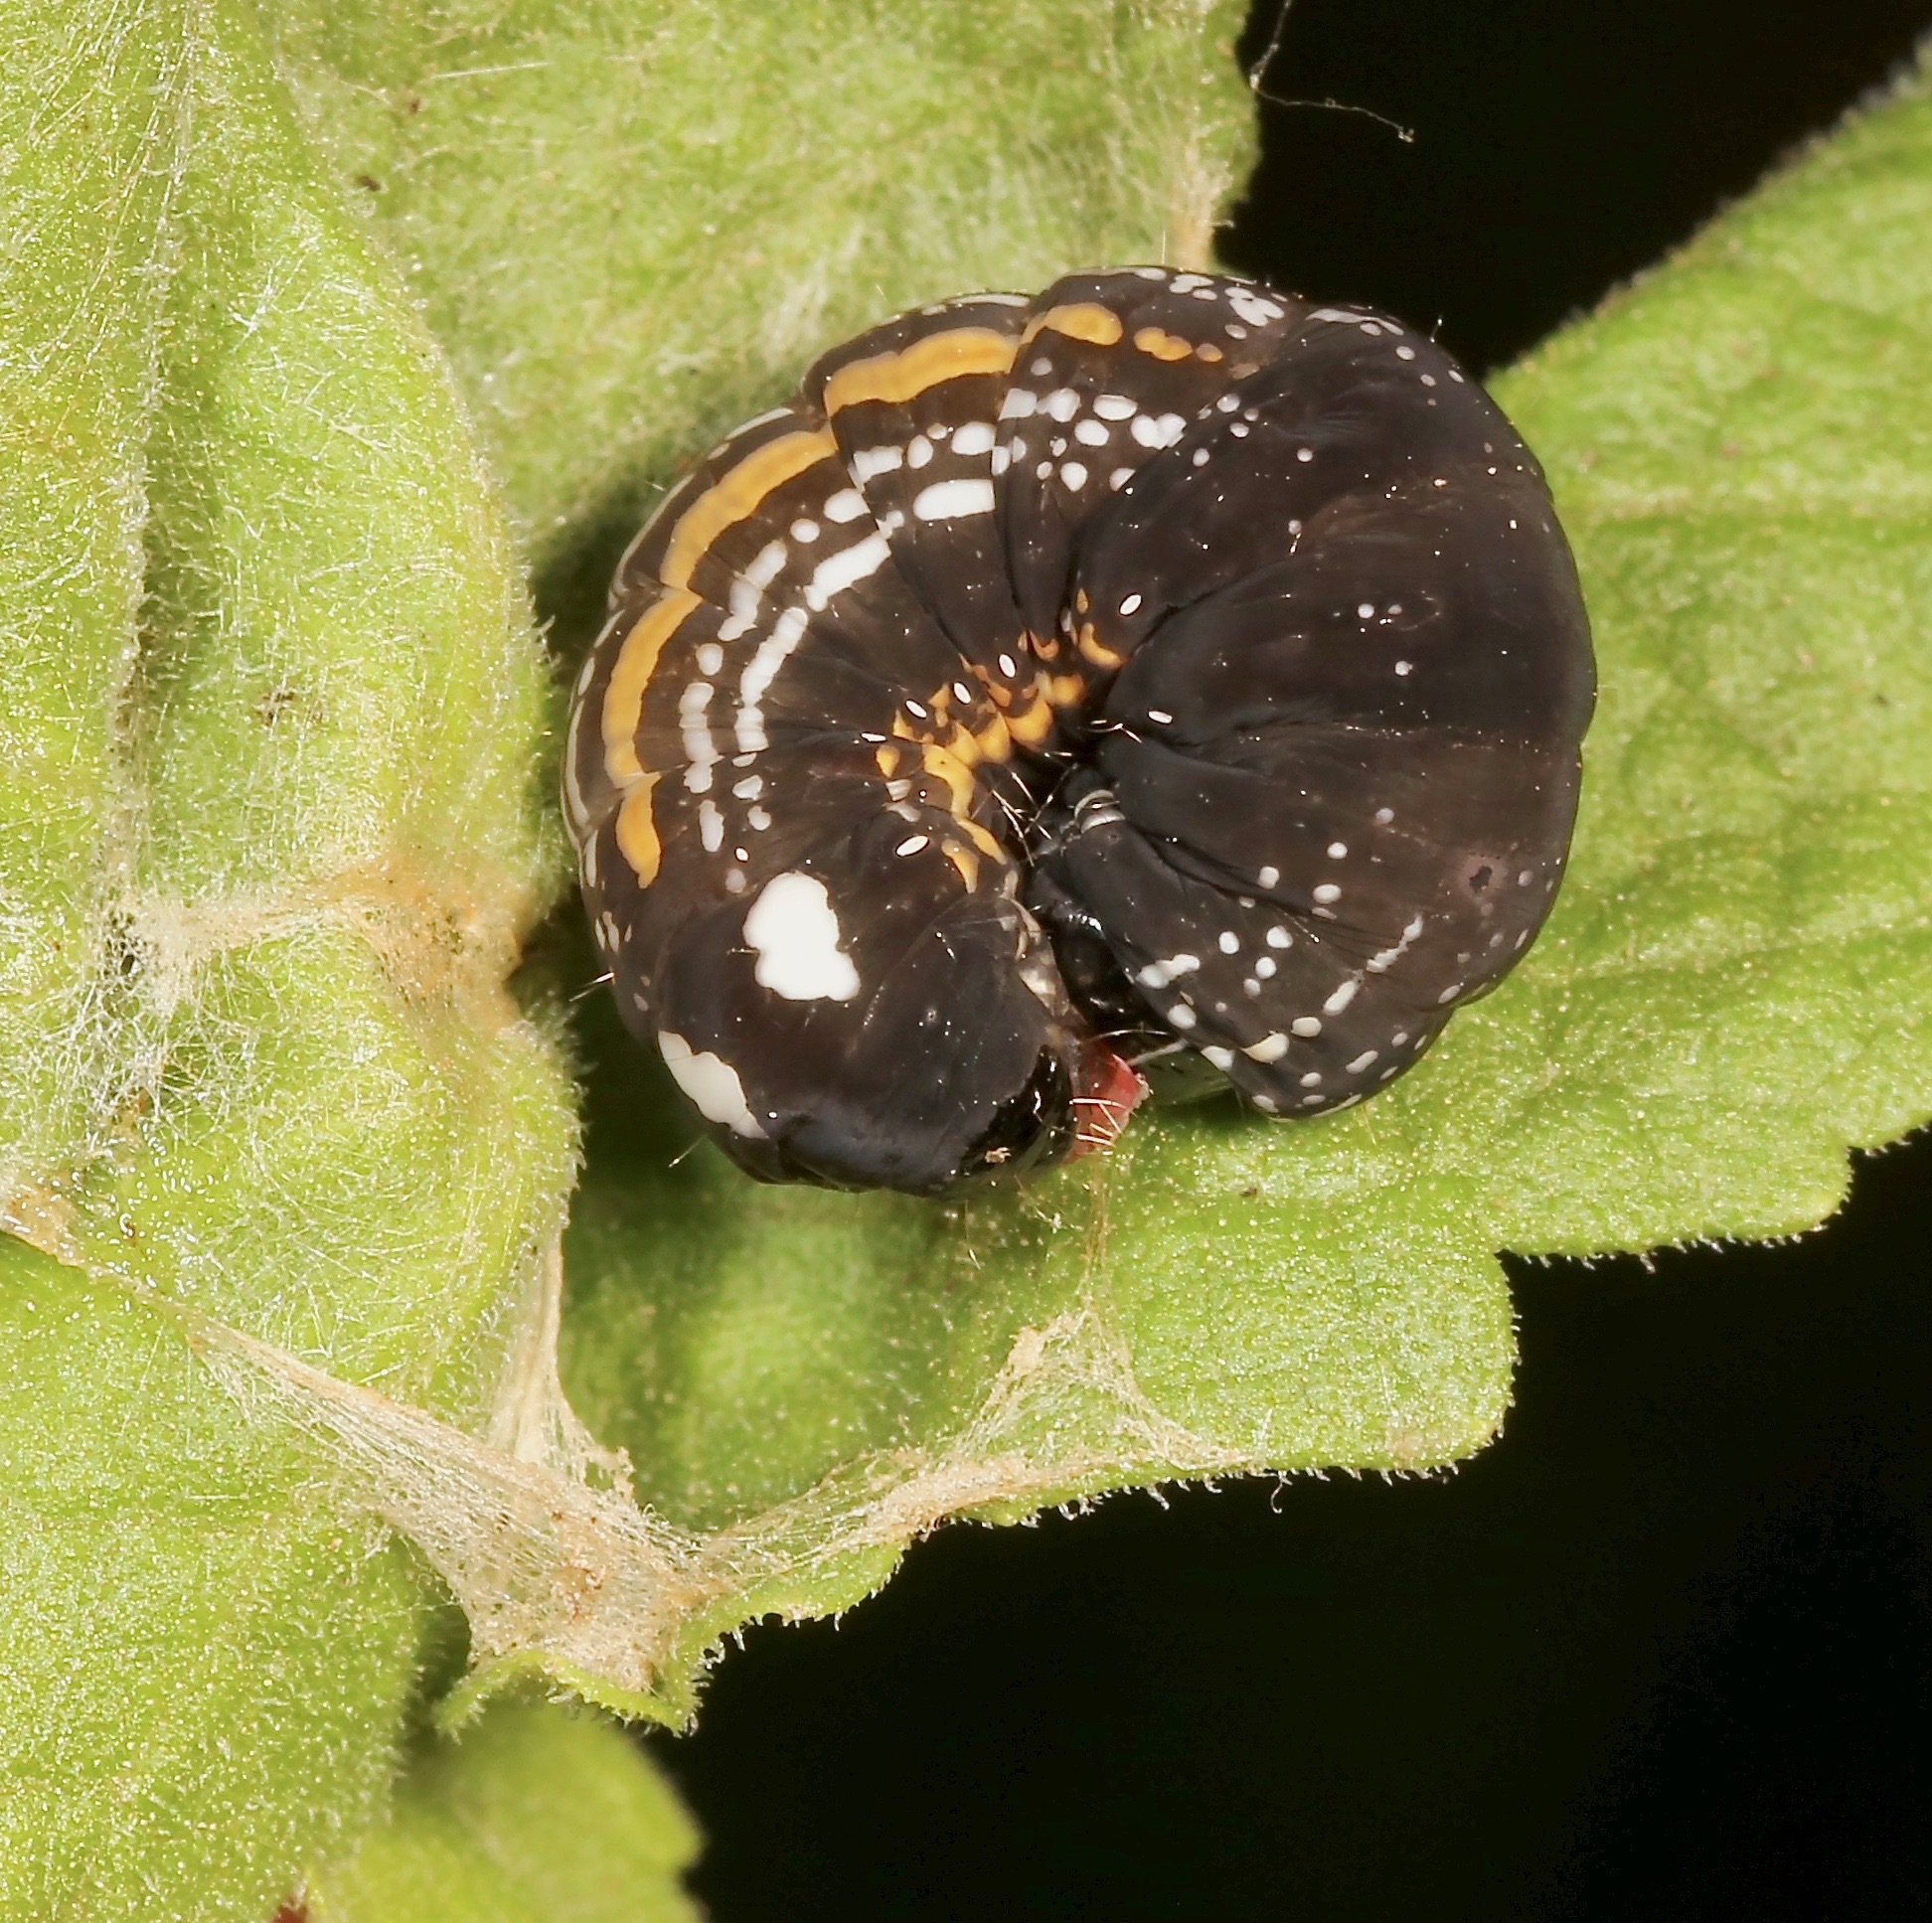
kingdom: Animalia
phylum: Arthropoda
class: Insecta
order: Lepidoptera
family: Noctuidae
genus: Hexorthodes
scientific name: Hexorthodes accurata
